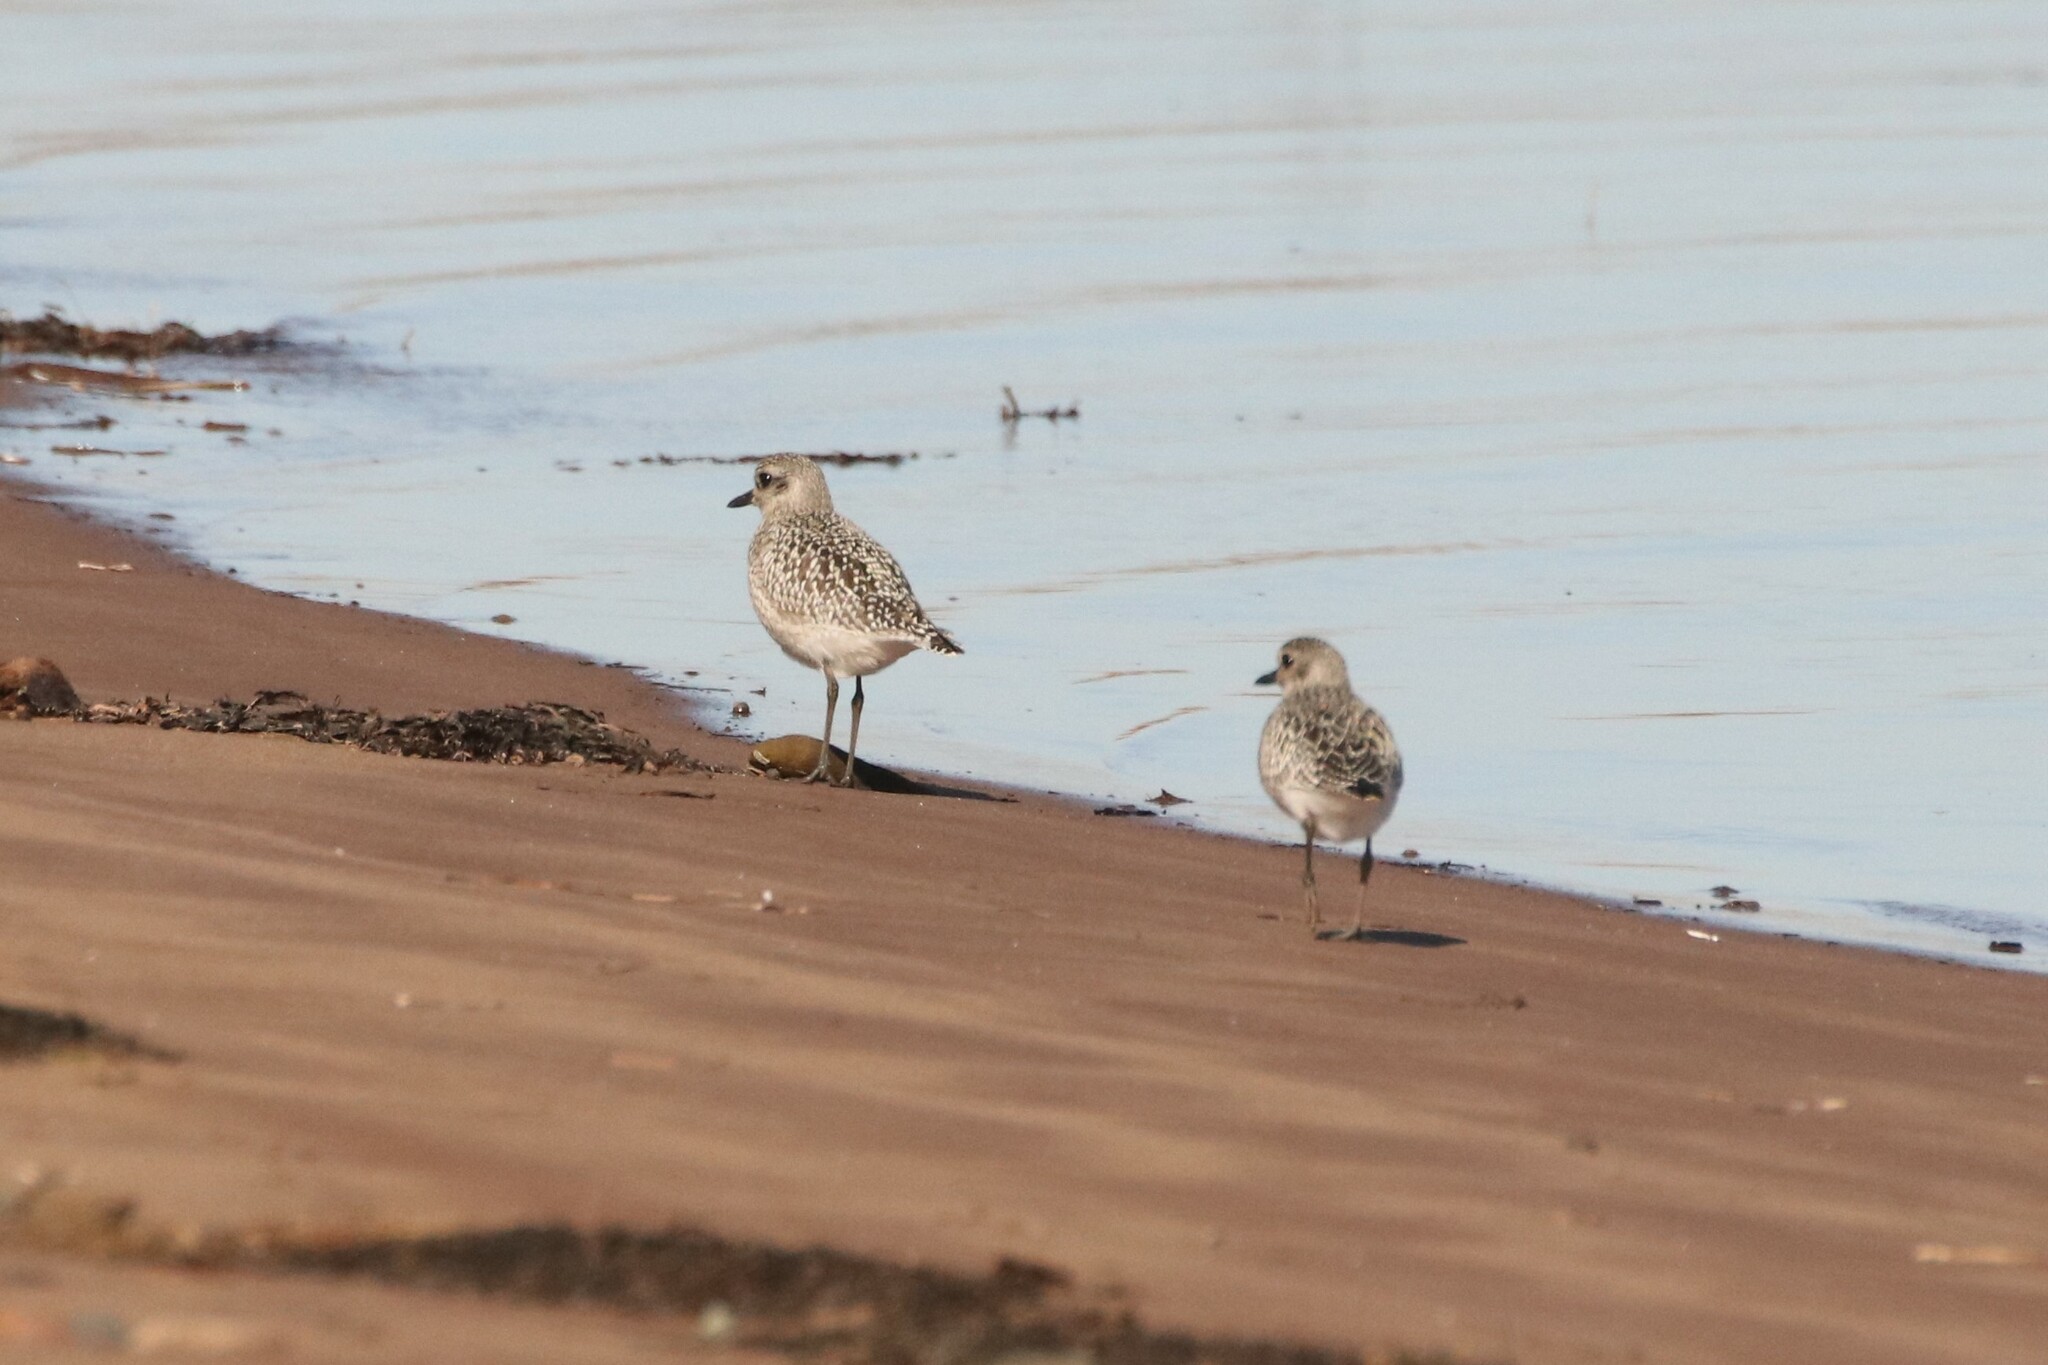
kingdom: Animalia
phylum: Chordata
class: Aves
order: Charadriiformes
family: Charadriidae
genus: Pluvialis
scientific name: Pluvialis squatarola
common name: Grey plover
